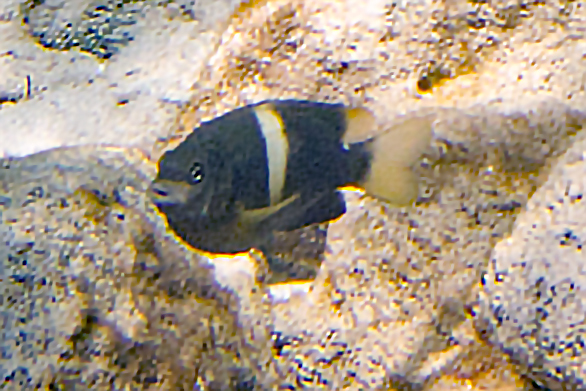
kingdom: Animalia
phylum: Chordata
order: Perciformes
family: Pomacentridae
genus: Plectroglyphidodon
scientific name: Plectroglyphidodon leucozonus
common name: White-band damsel
